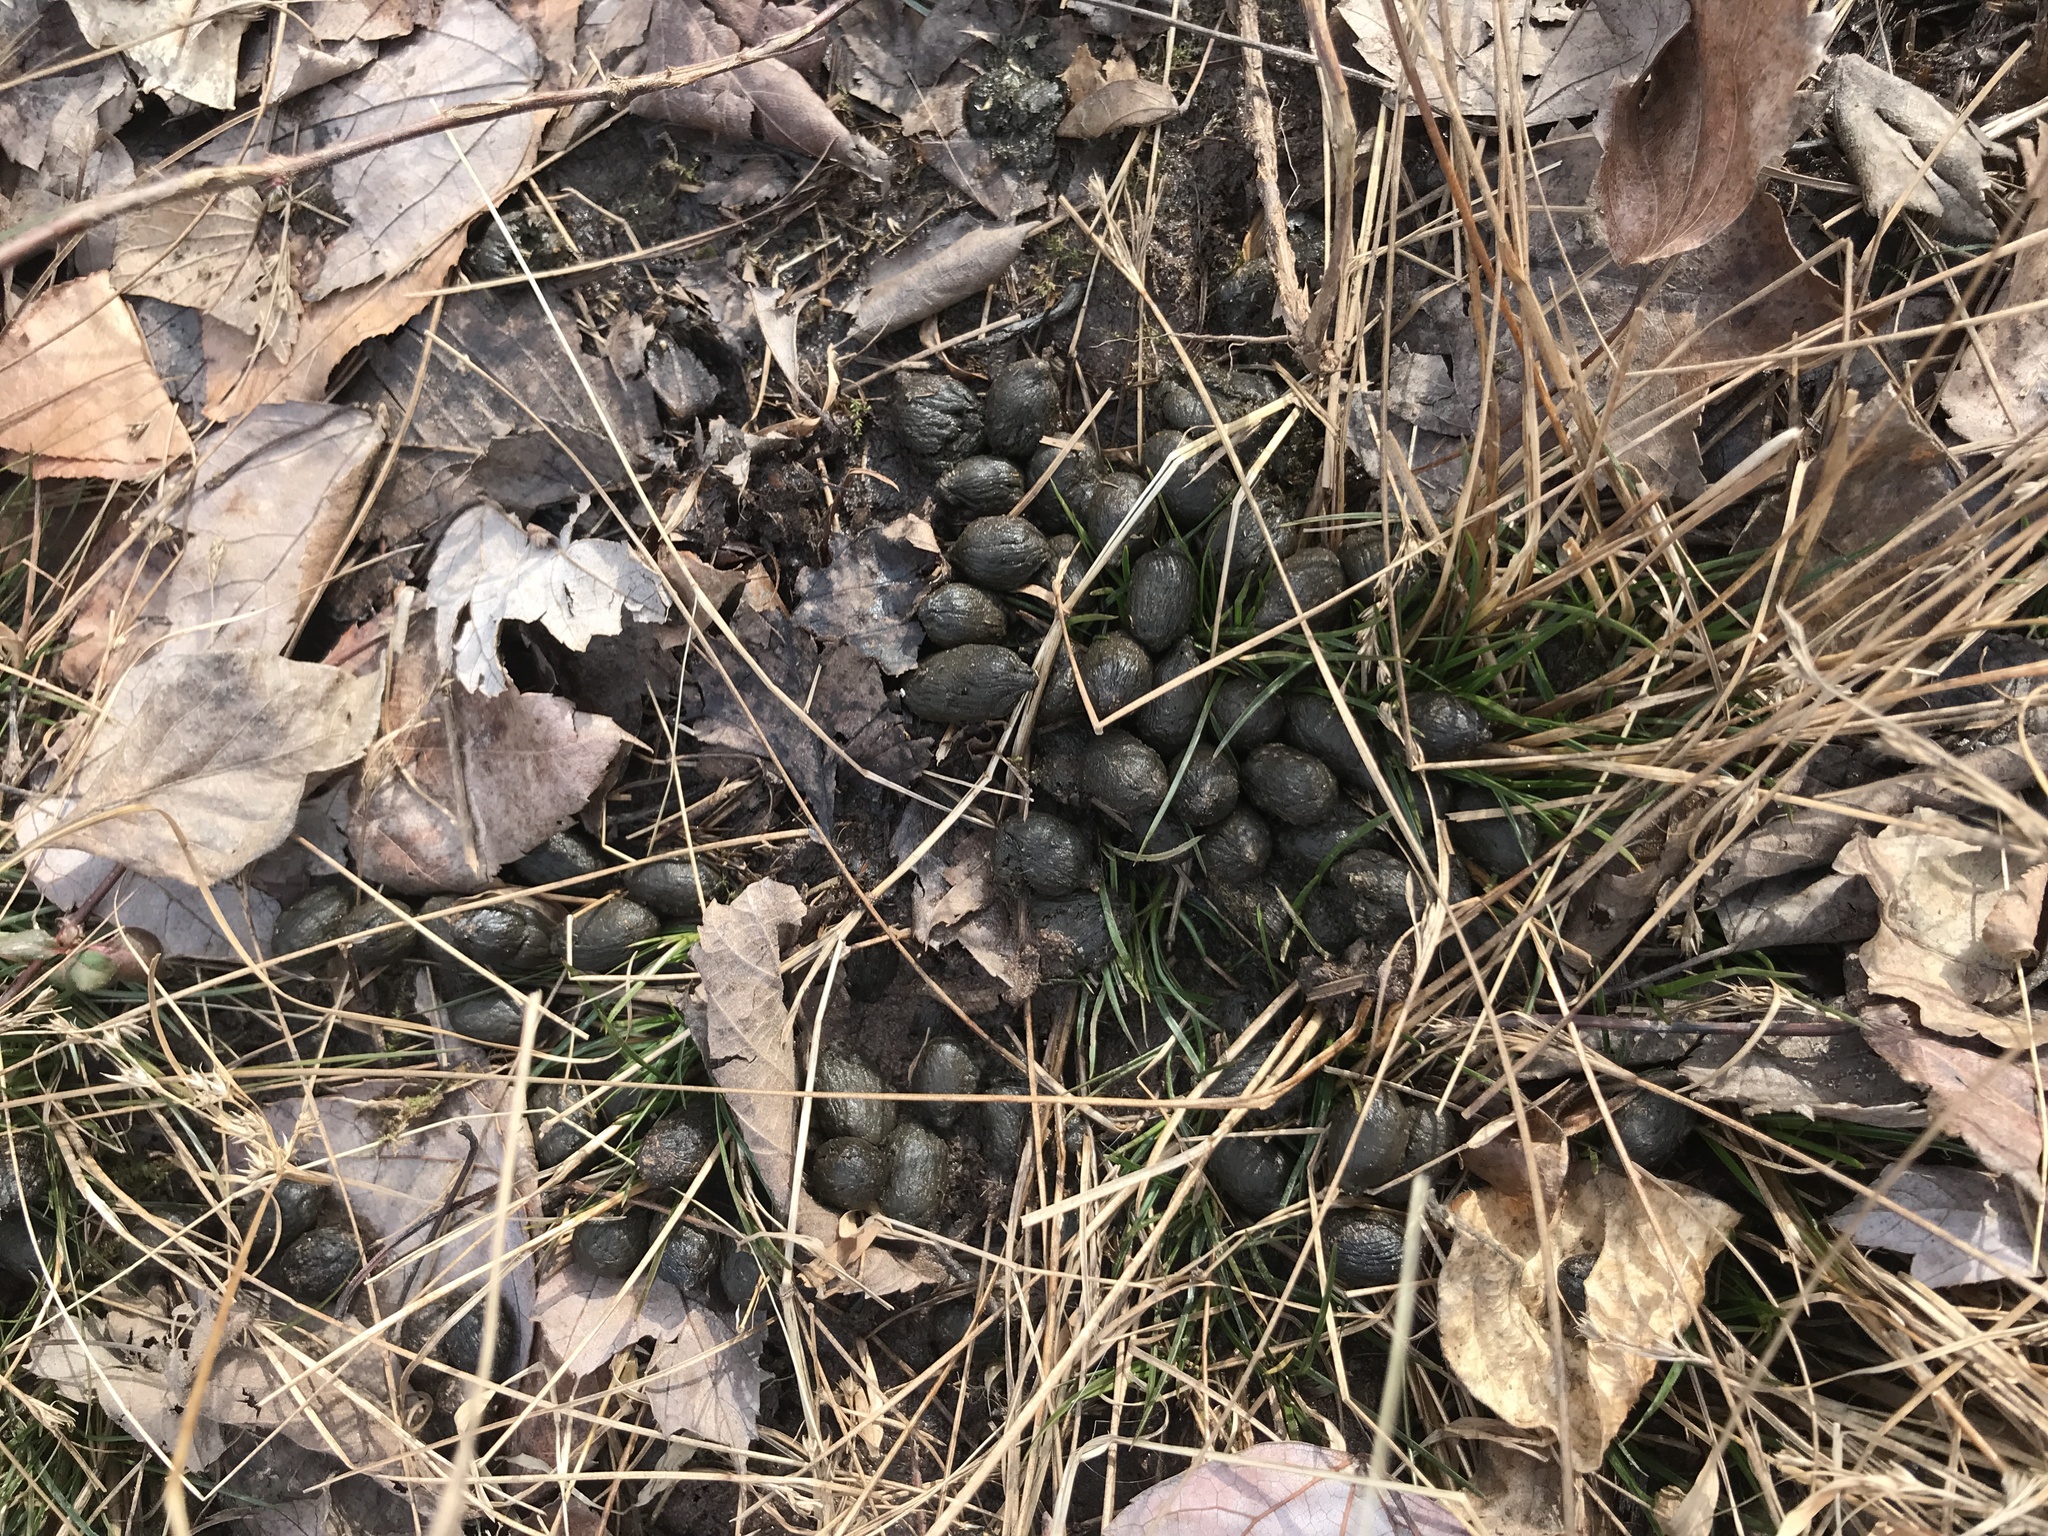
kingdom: Animalia
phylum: Chordata
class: Mammalia
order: Artiodactyla
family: Cervidae
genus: Odocoileus
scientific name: Odocoileus virginianus
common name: White-tailed deer
